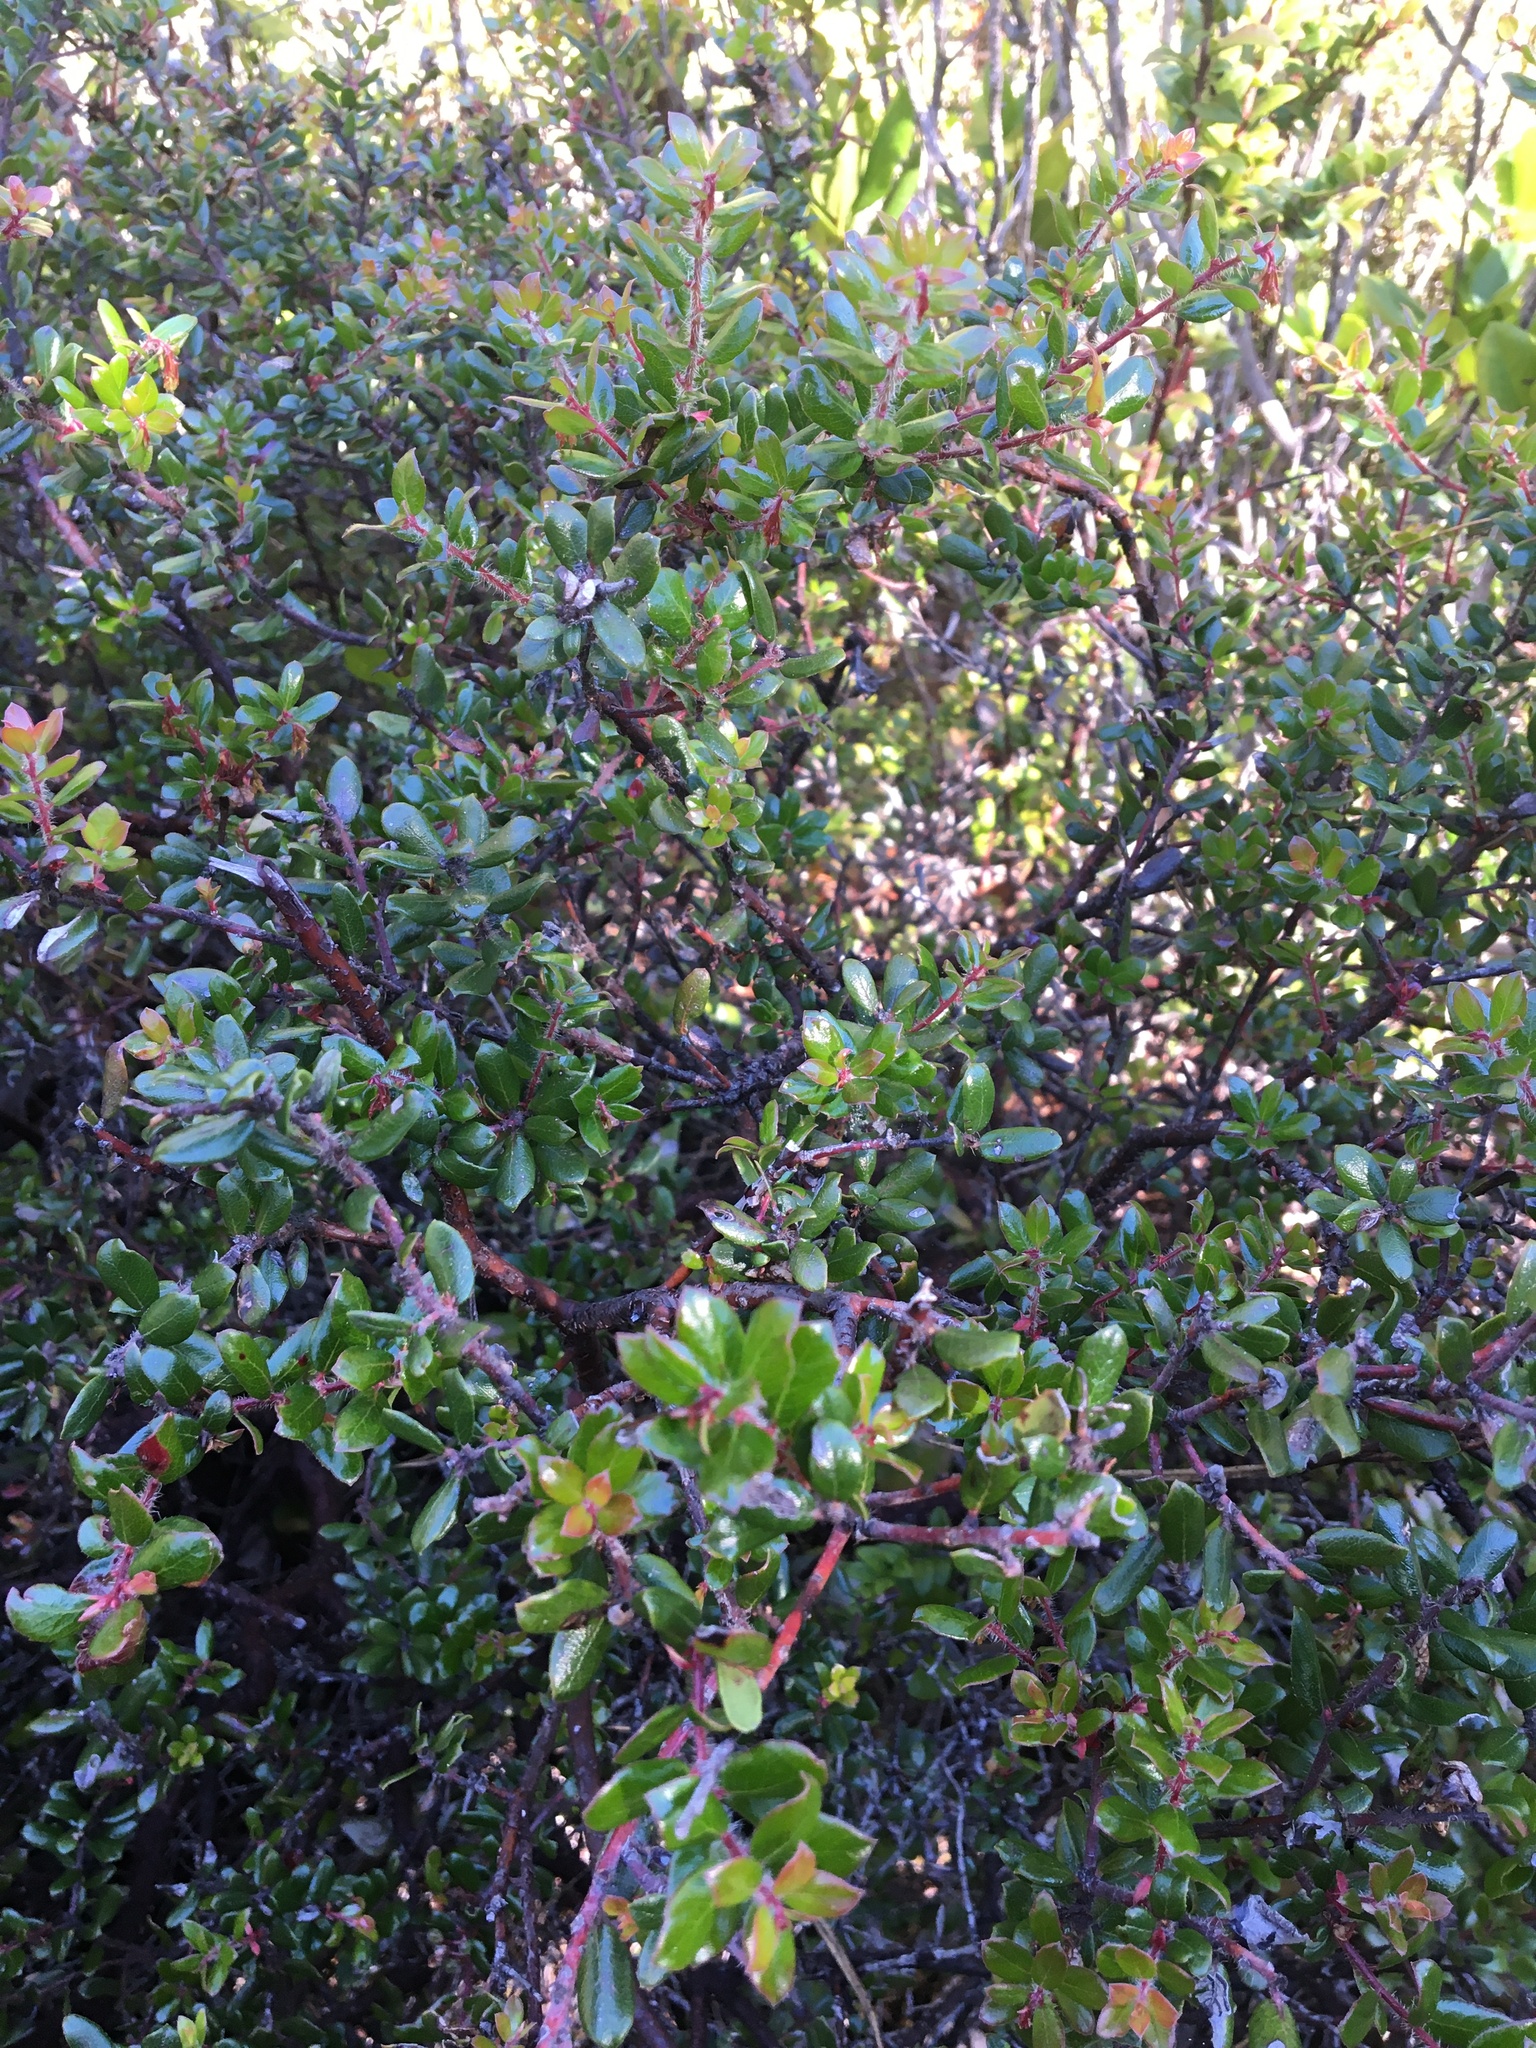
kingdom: Plantae
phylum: Tracheophyta
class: Magnoliopsida
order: Ericales
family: Ericaceae
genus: Arctostaphylos
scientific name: Arctostaphylos nummularia
